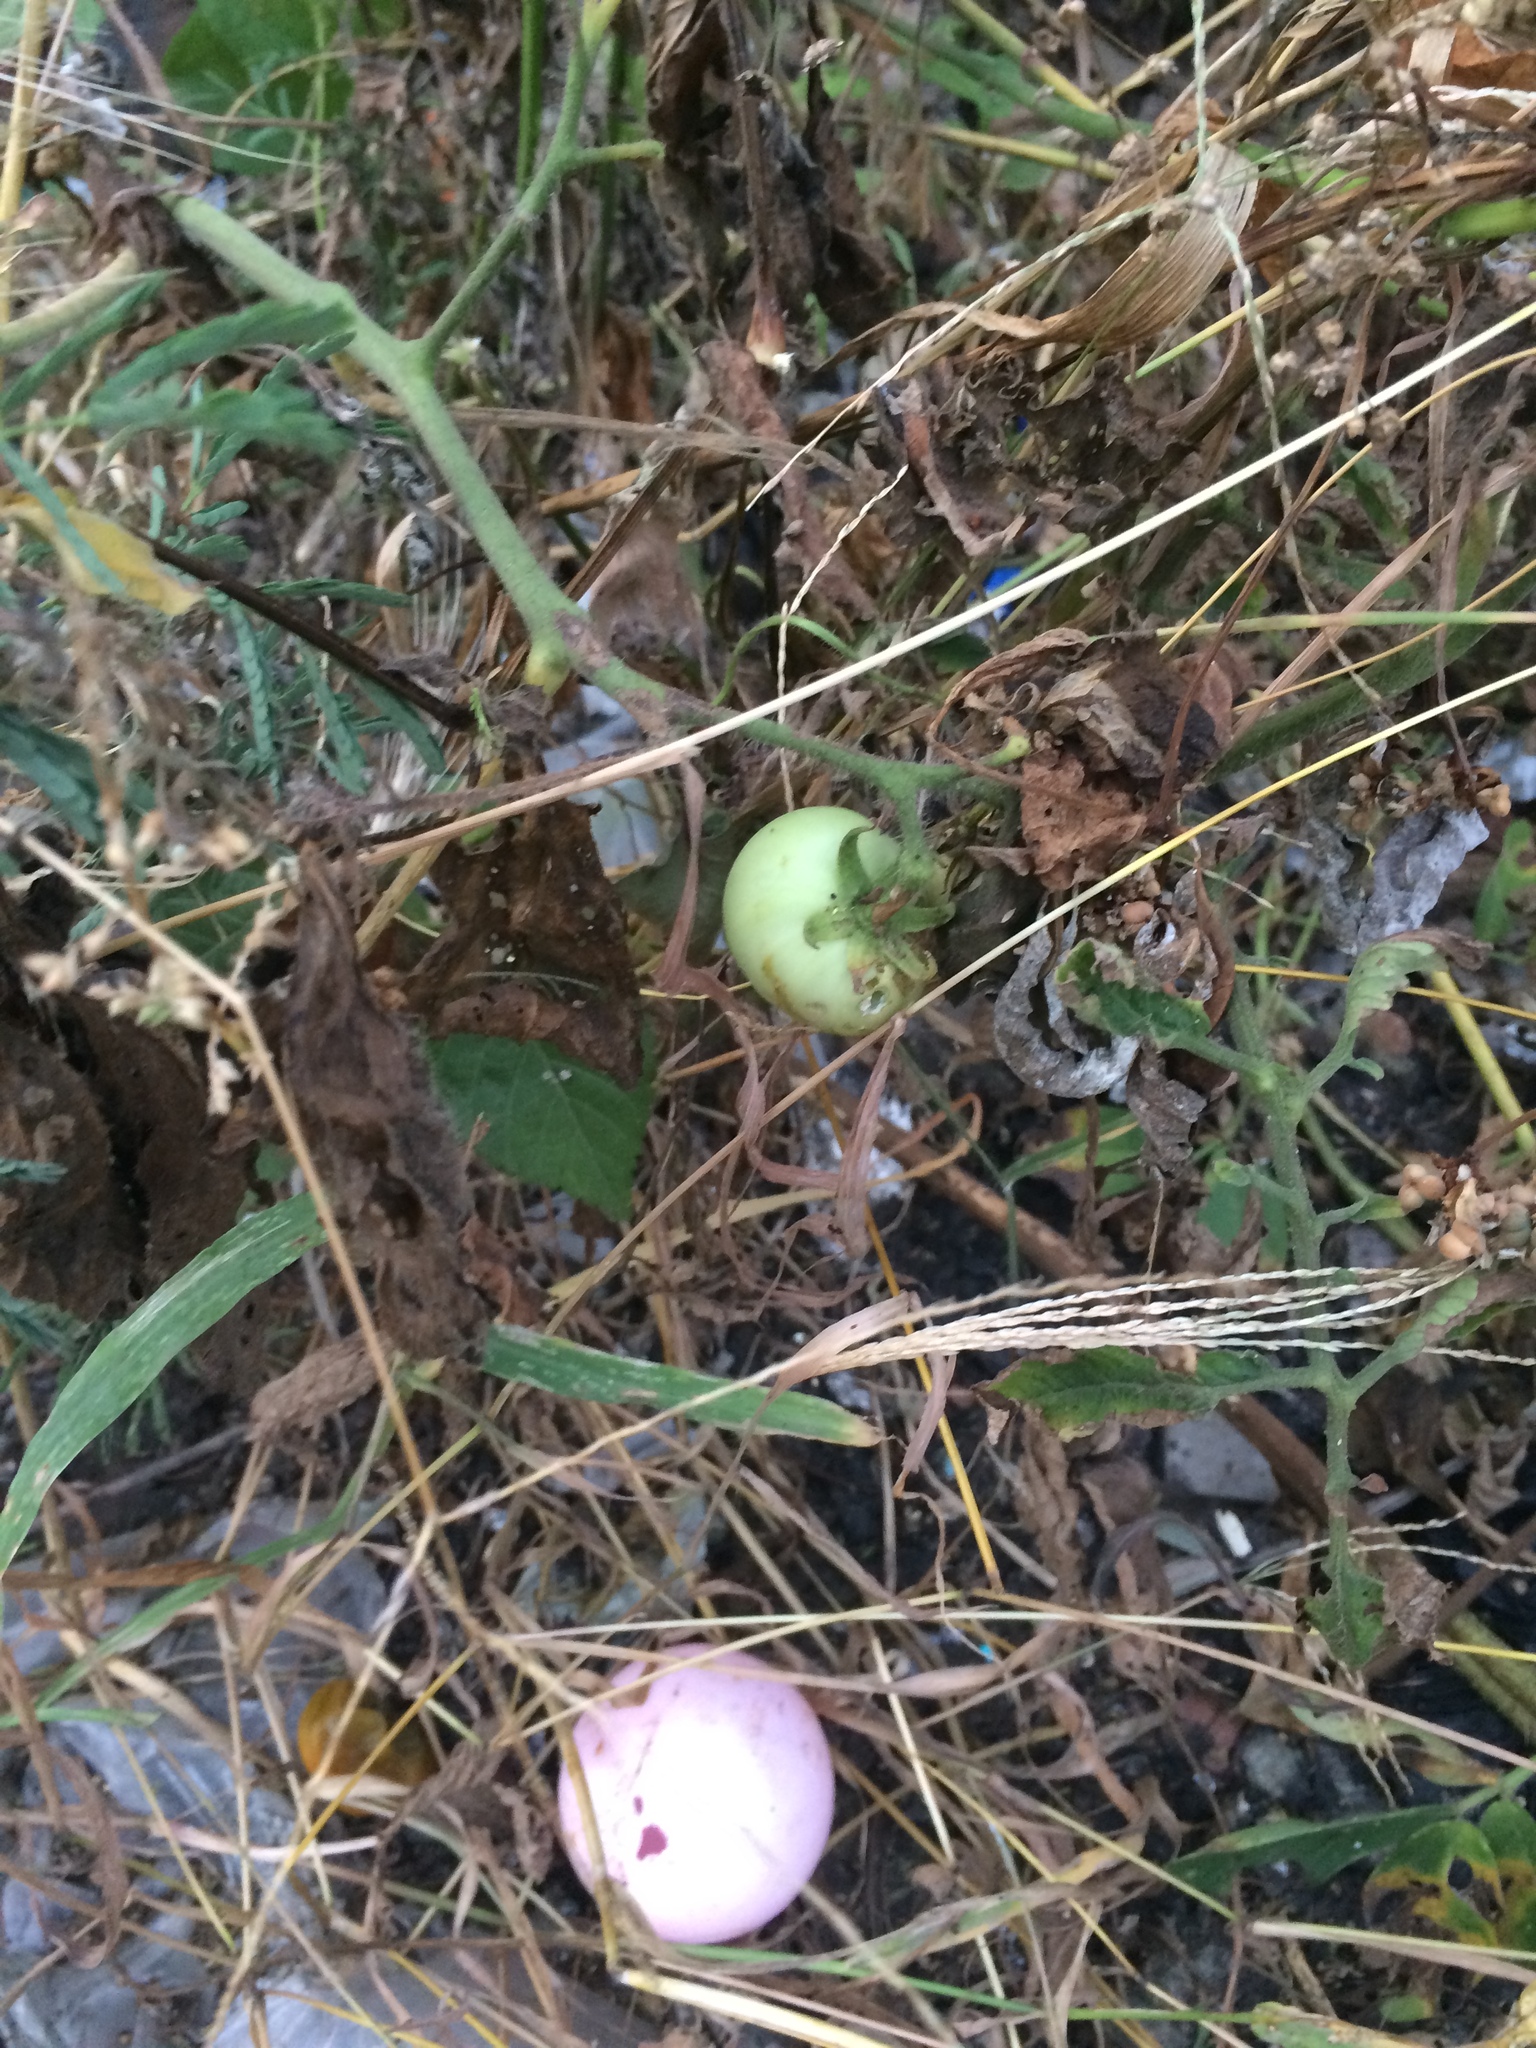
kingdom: Plantae
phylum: Tracheophyta
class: Magnoliopsida
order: Solanales
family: Solanaceae
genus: Solanum
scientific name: Solanum lycopersicum
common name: Garden tomato
